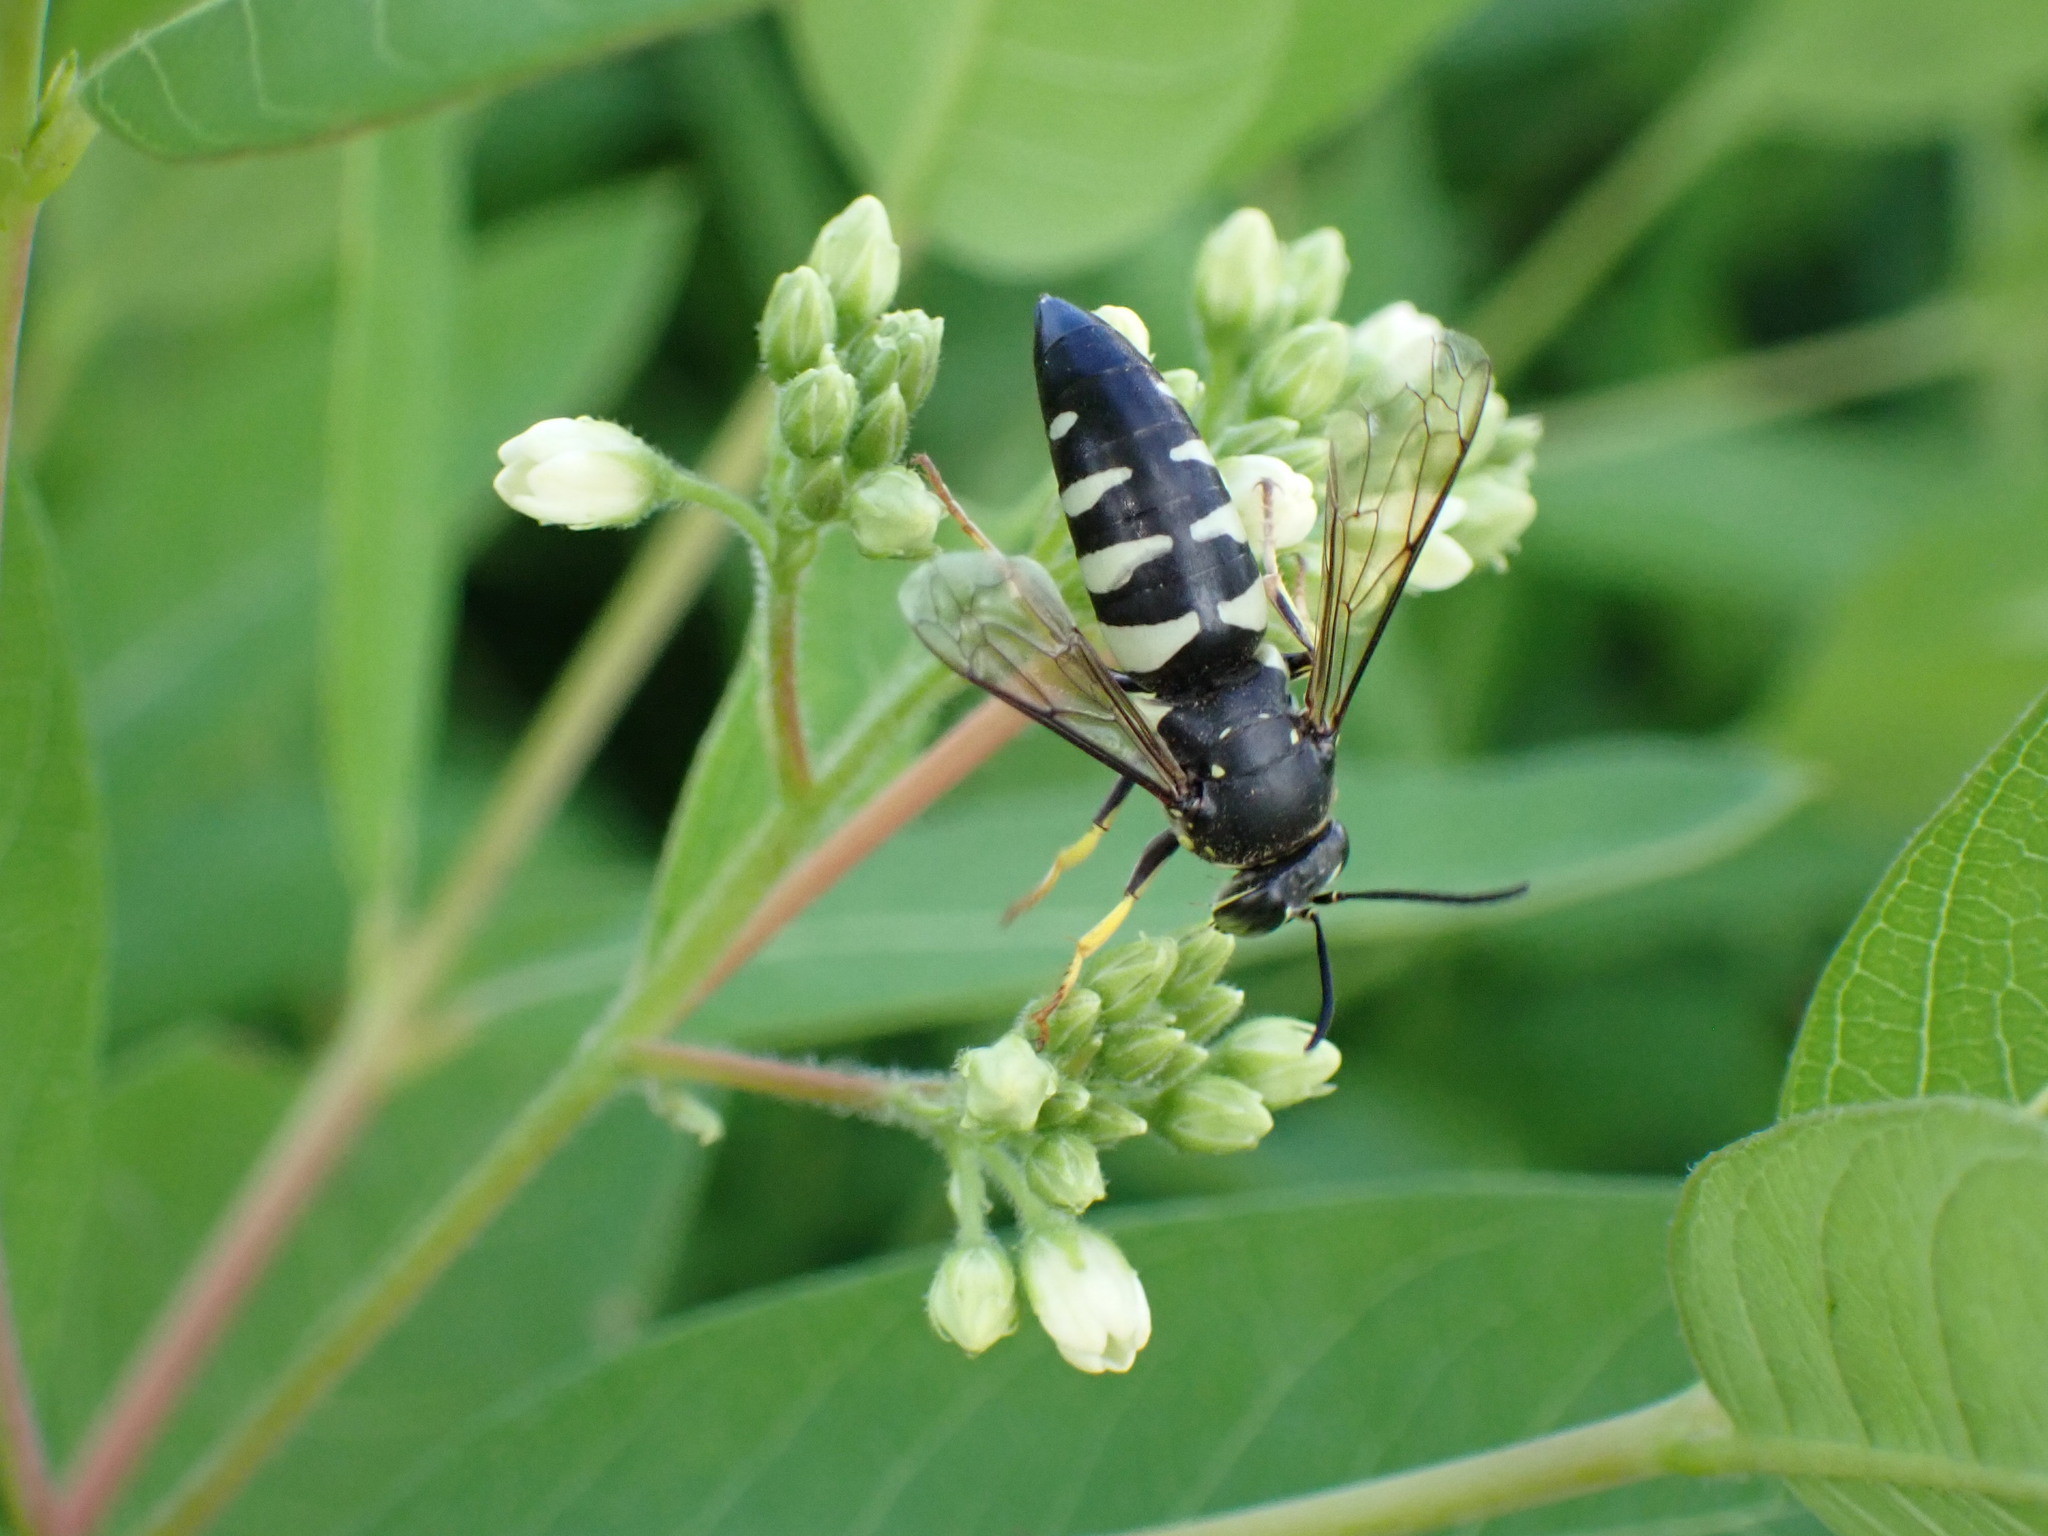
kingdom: Animalia
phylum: Arthropoda
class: Insecta
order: Hymenoptera
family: Crabronidae
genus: Bicyrtes
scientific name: Bicyrtes quadrifasciatus
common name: Four-banded stink bug hunter wasp
